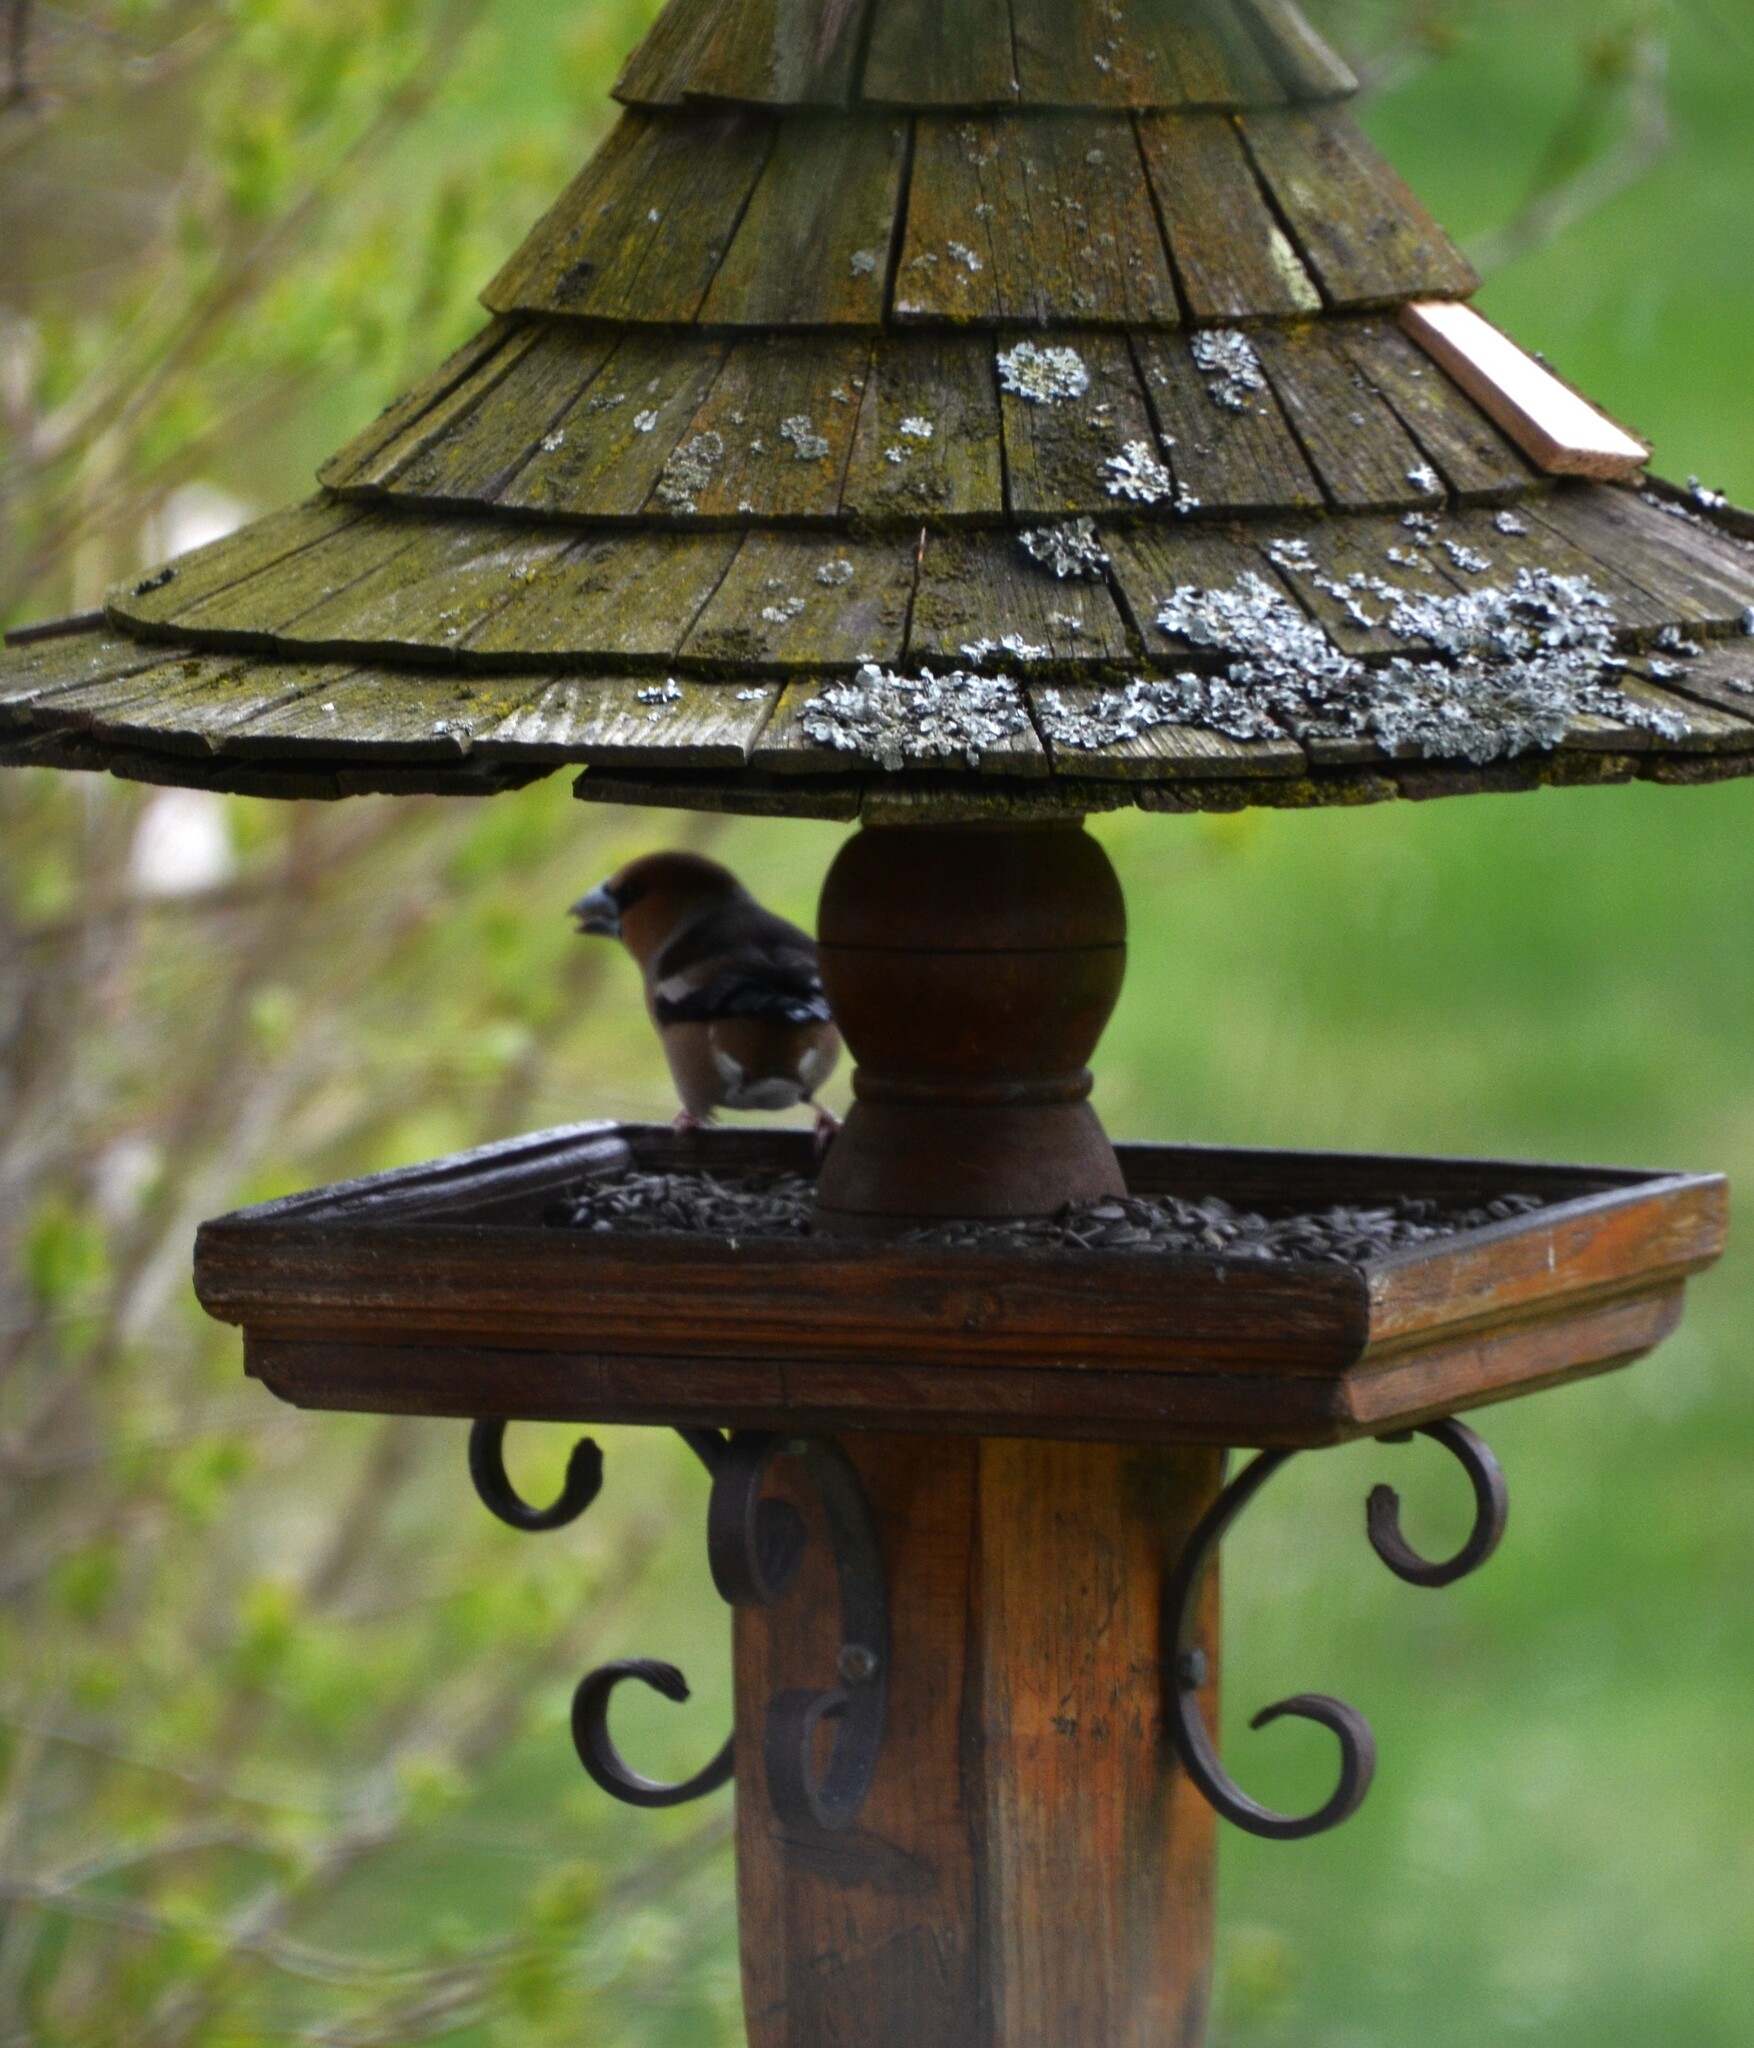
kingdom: Animalia
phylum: Chordata
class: Aves
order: Passeriformes
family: Fringillidae
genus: Coccothraustes
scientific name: Coccothraustes coccothraustes
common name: Hawfinch
